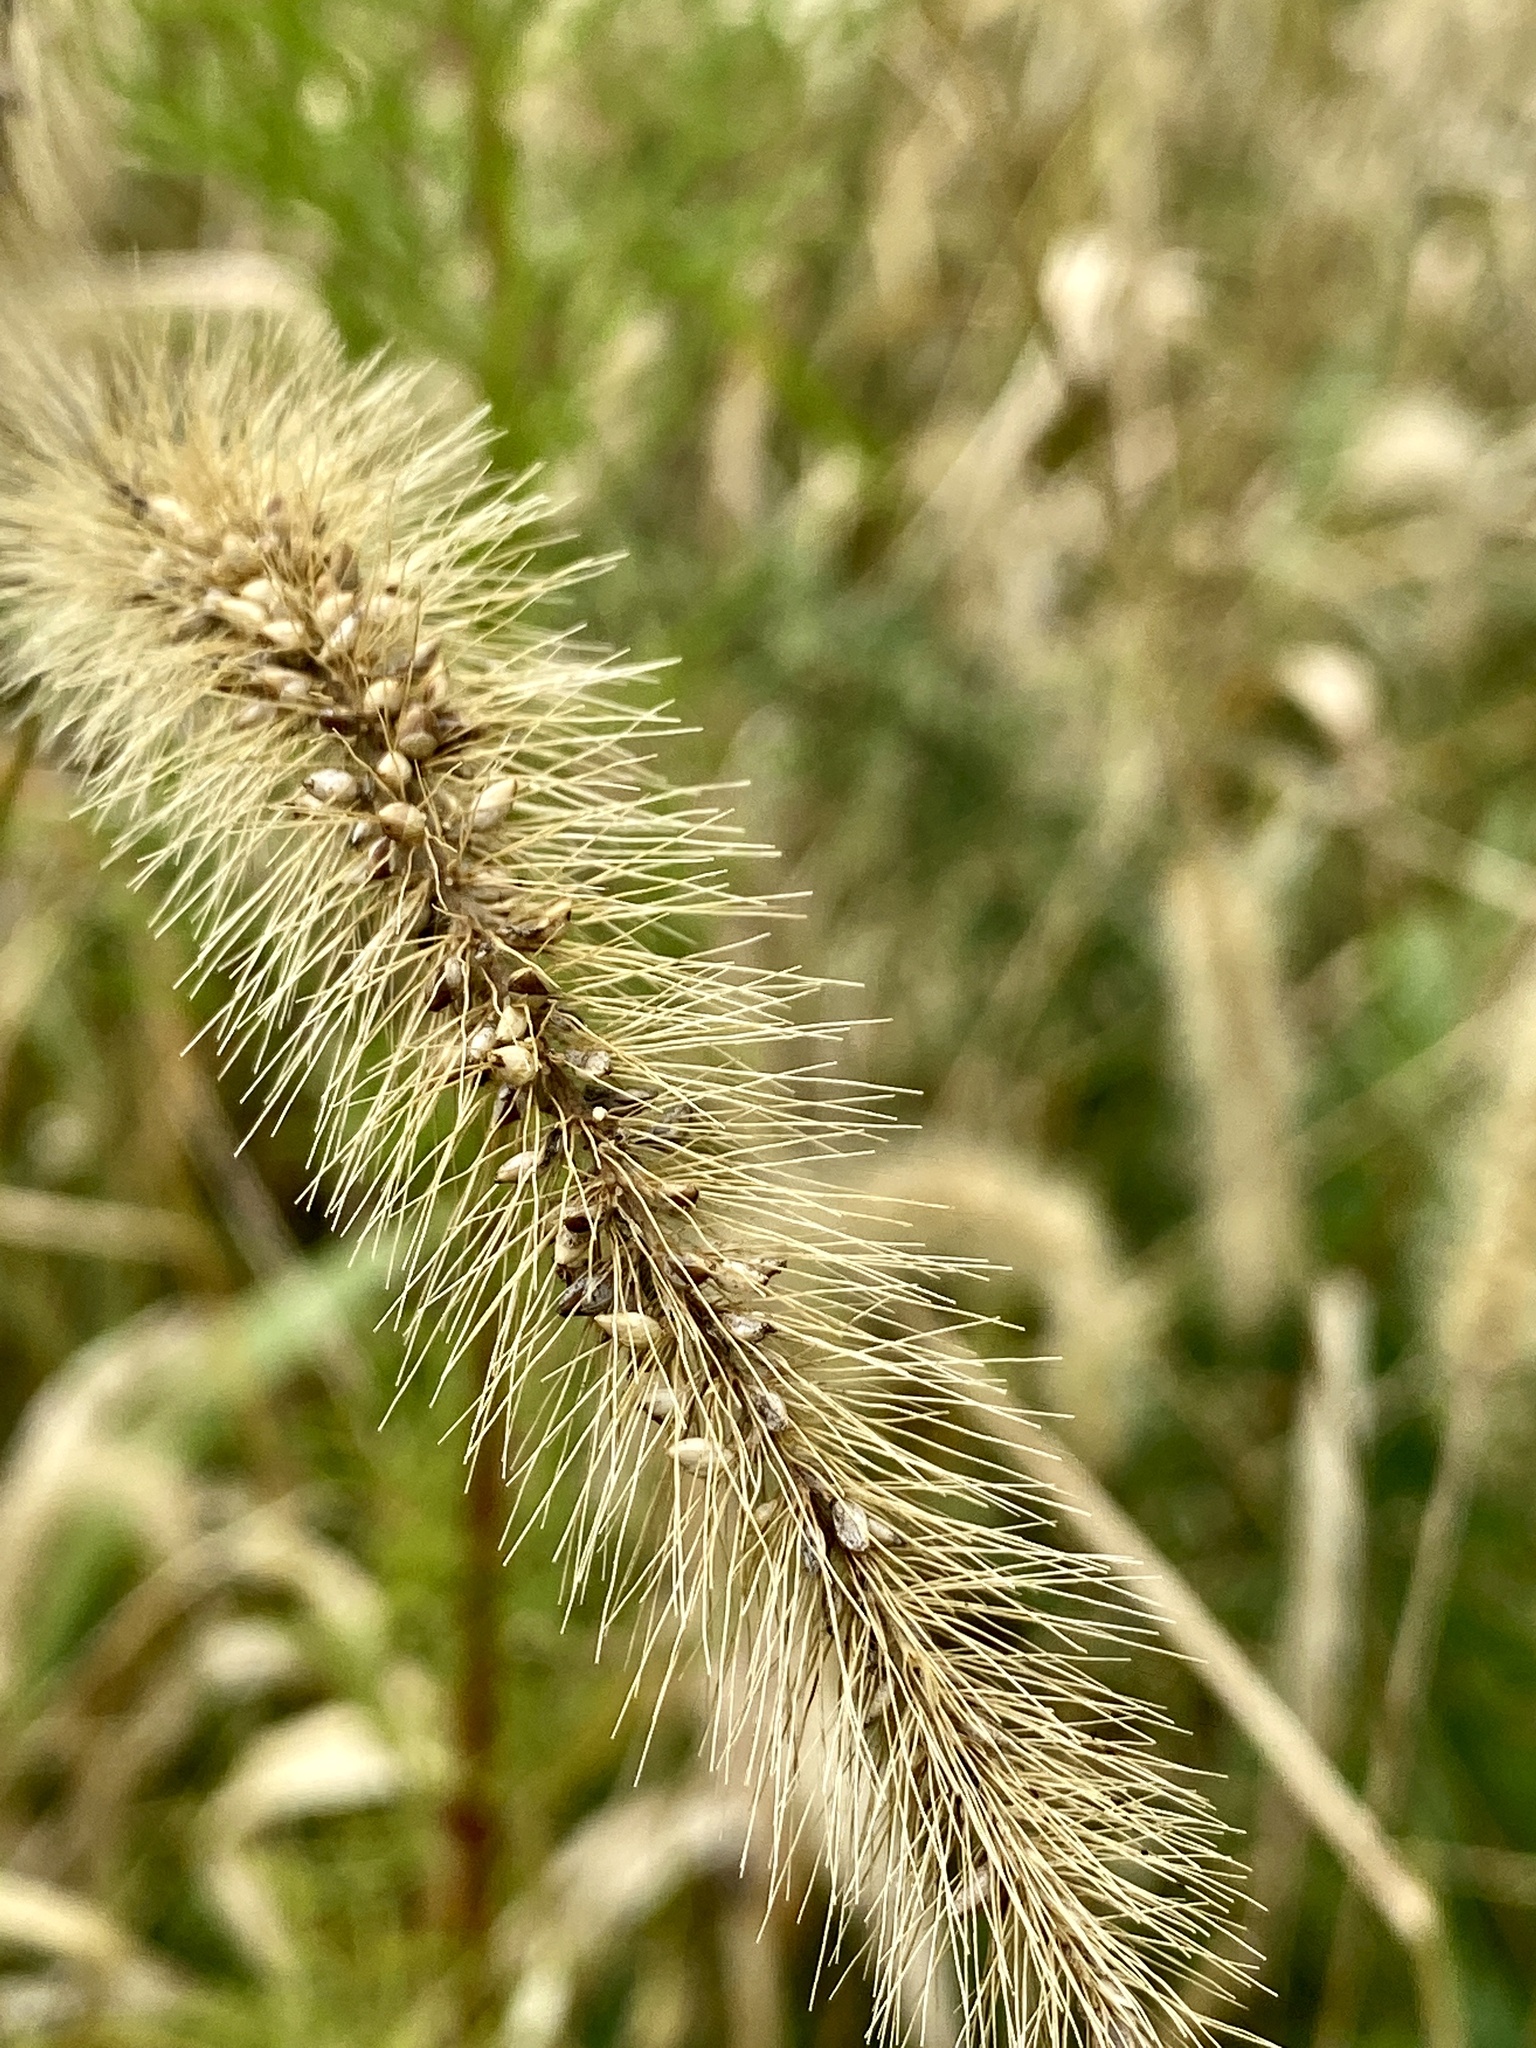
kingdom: Plantae
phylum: Tracheophyta
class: Liliopsida
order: Poales
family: Poaceae
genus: Setaria
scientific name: Setaria faberi
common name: Nodding bristle-grass
